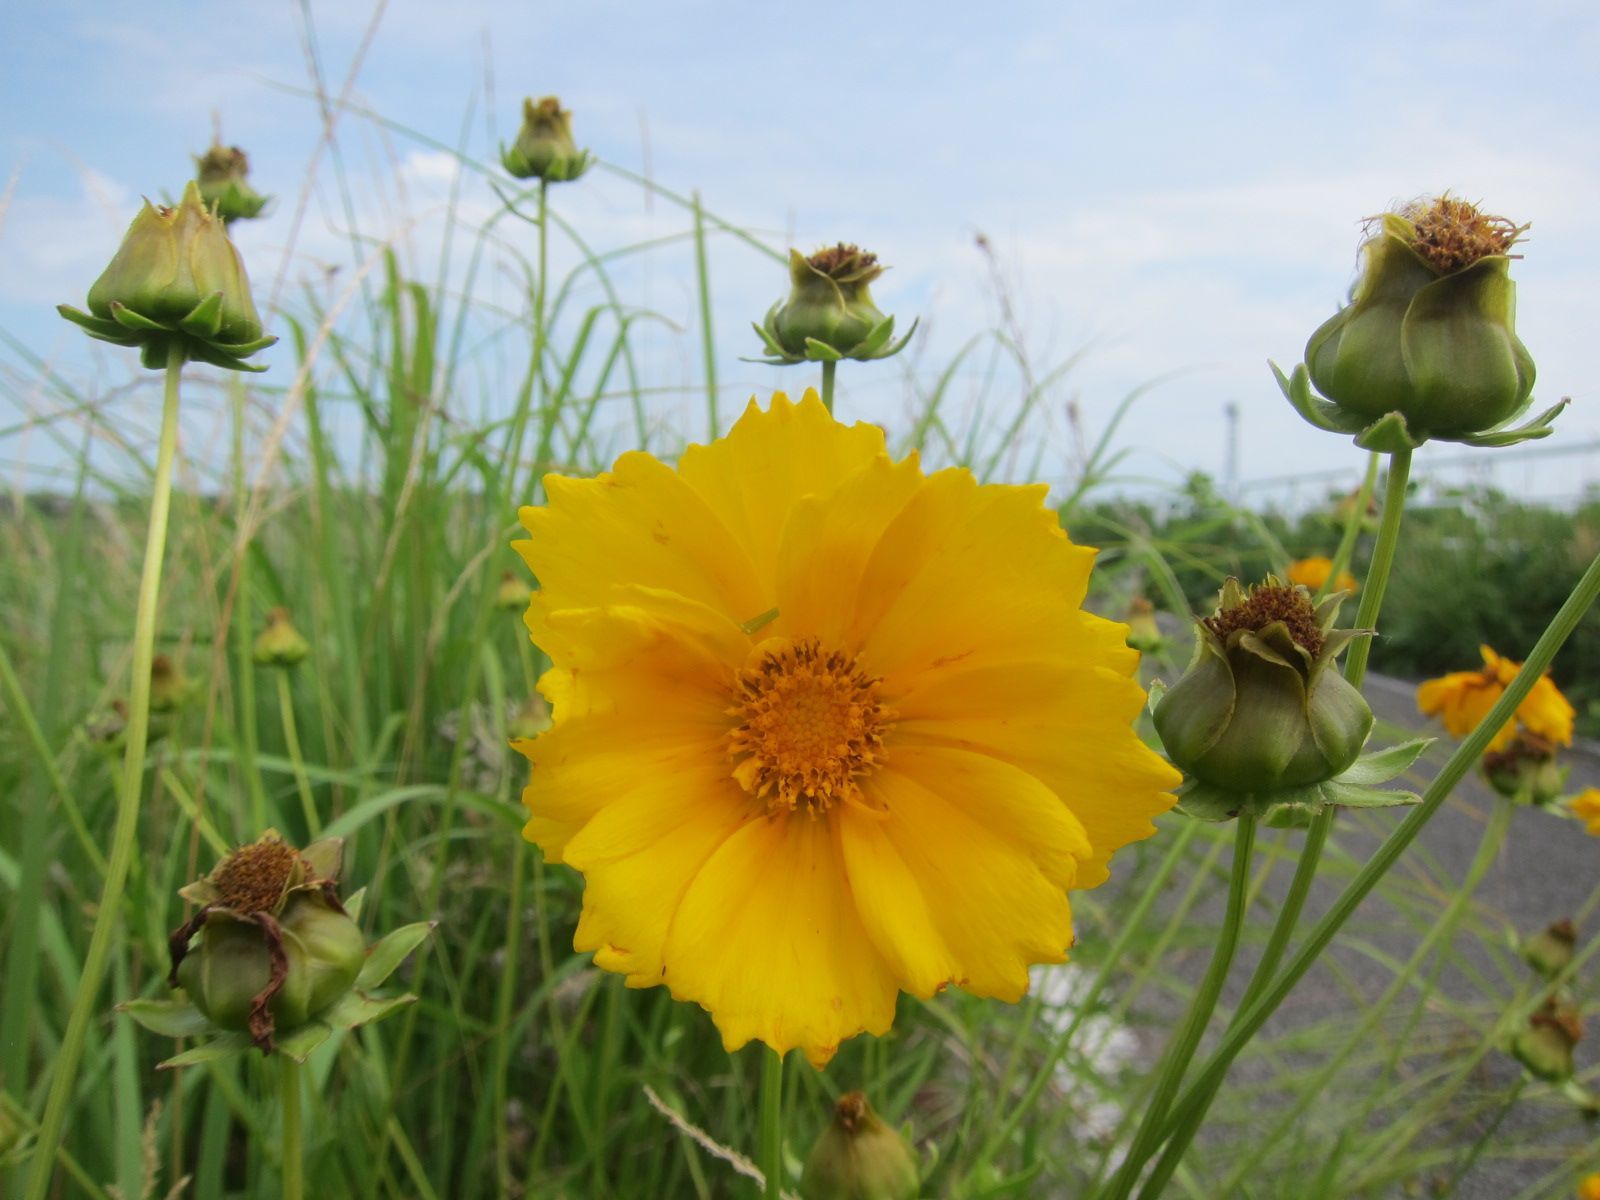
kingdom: Plantae
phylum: Tracheophyta
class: Magnoliopsida
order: Asterales
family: Asteraceae
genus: Coreopsis
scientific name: Coreopsis lanceolata
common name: Garden coreopsis
